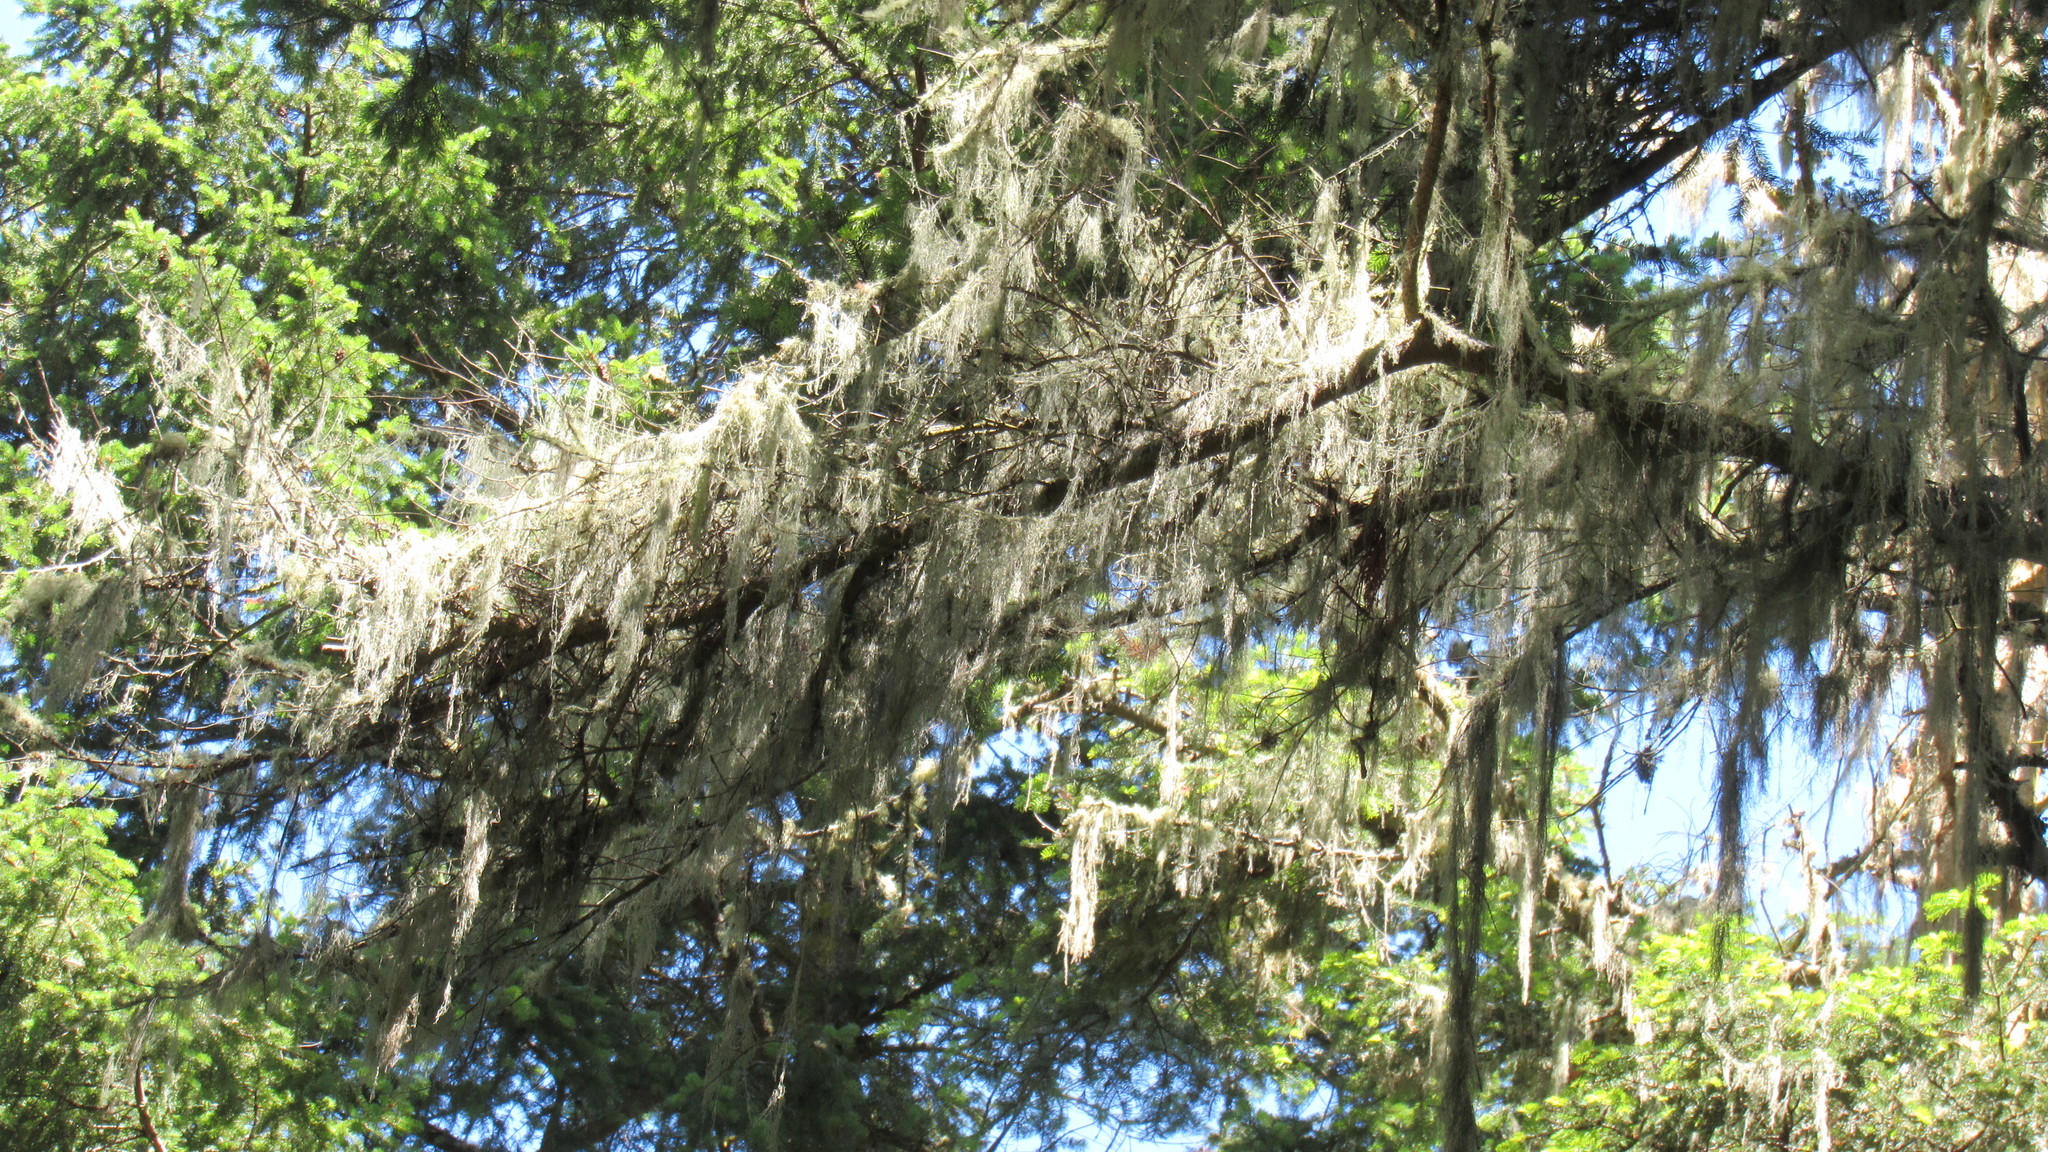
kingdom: Fungi
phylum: Ascomycota
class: Lecanoromycetes
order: Lecanorales
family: Ramalinaceae
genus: Ramalina
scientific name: Ramalina menziesii
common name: Lace lichen
